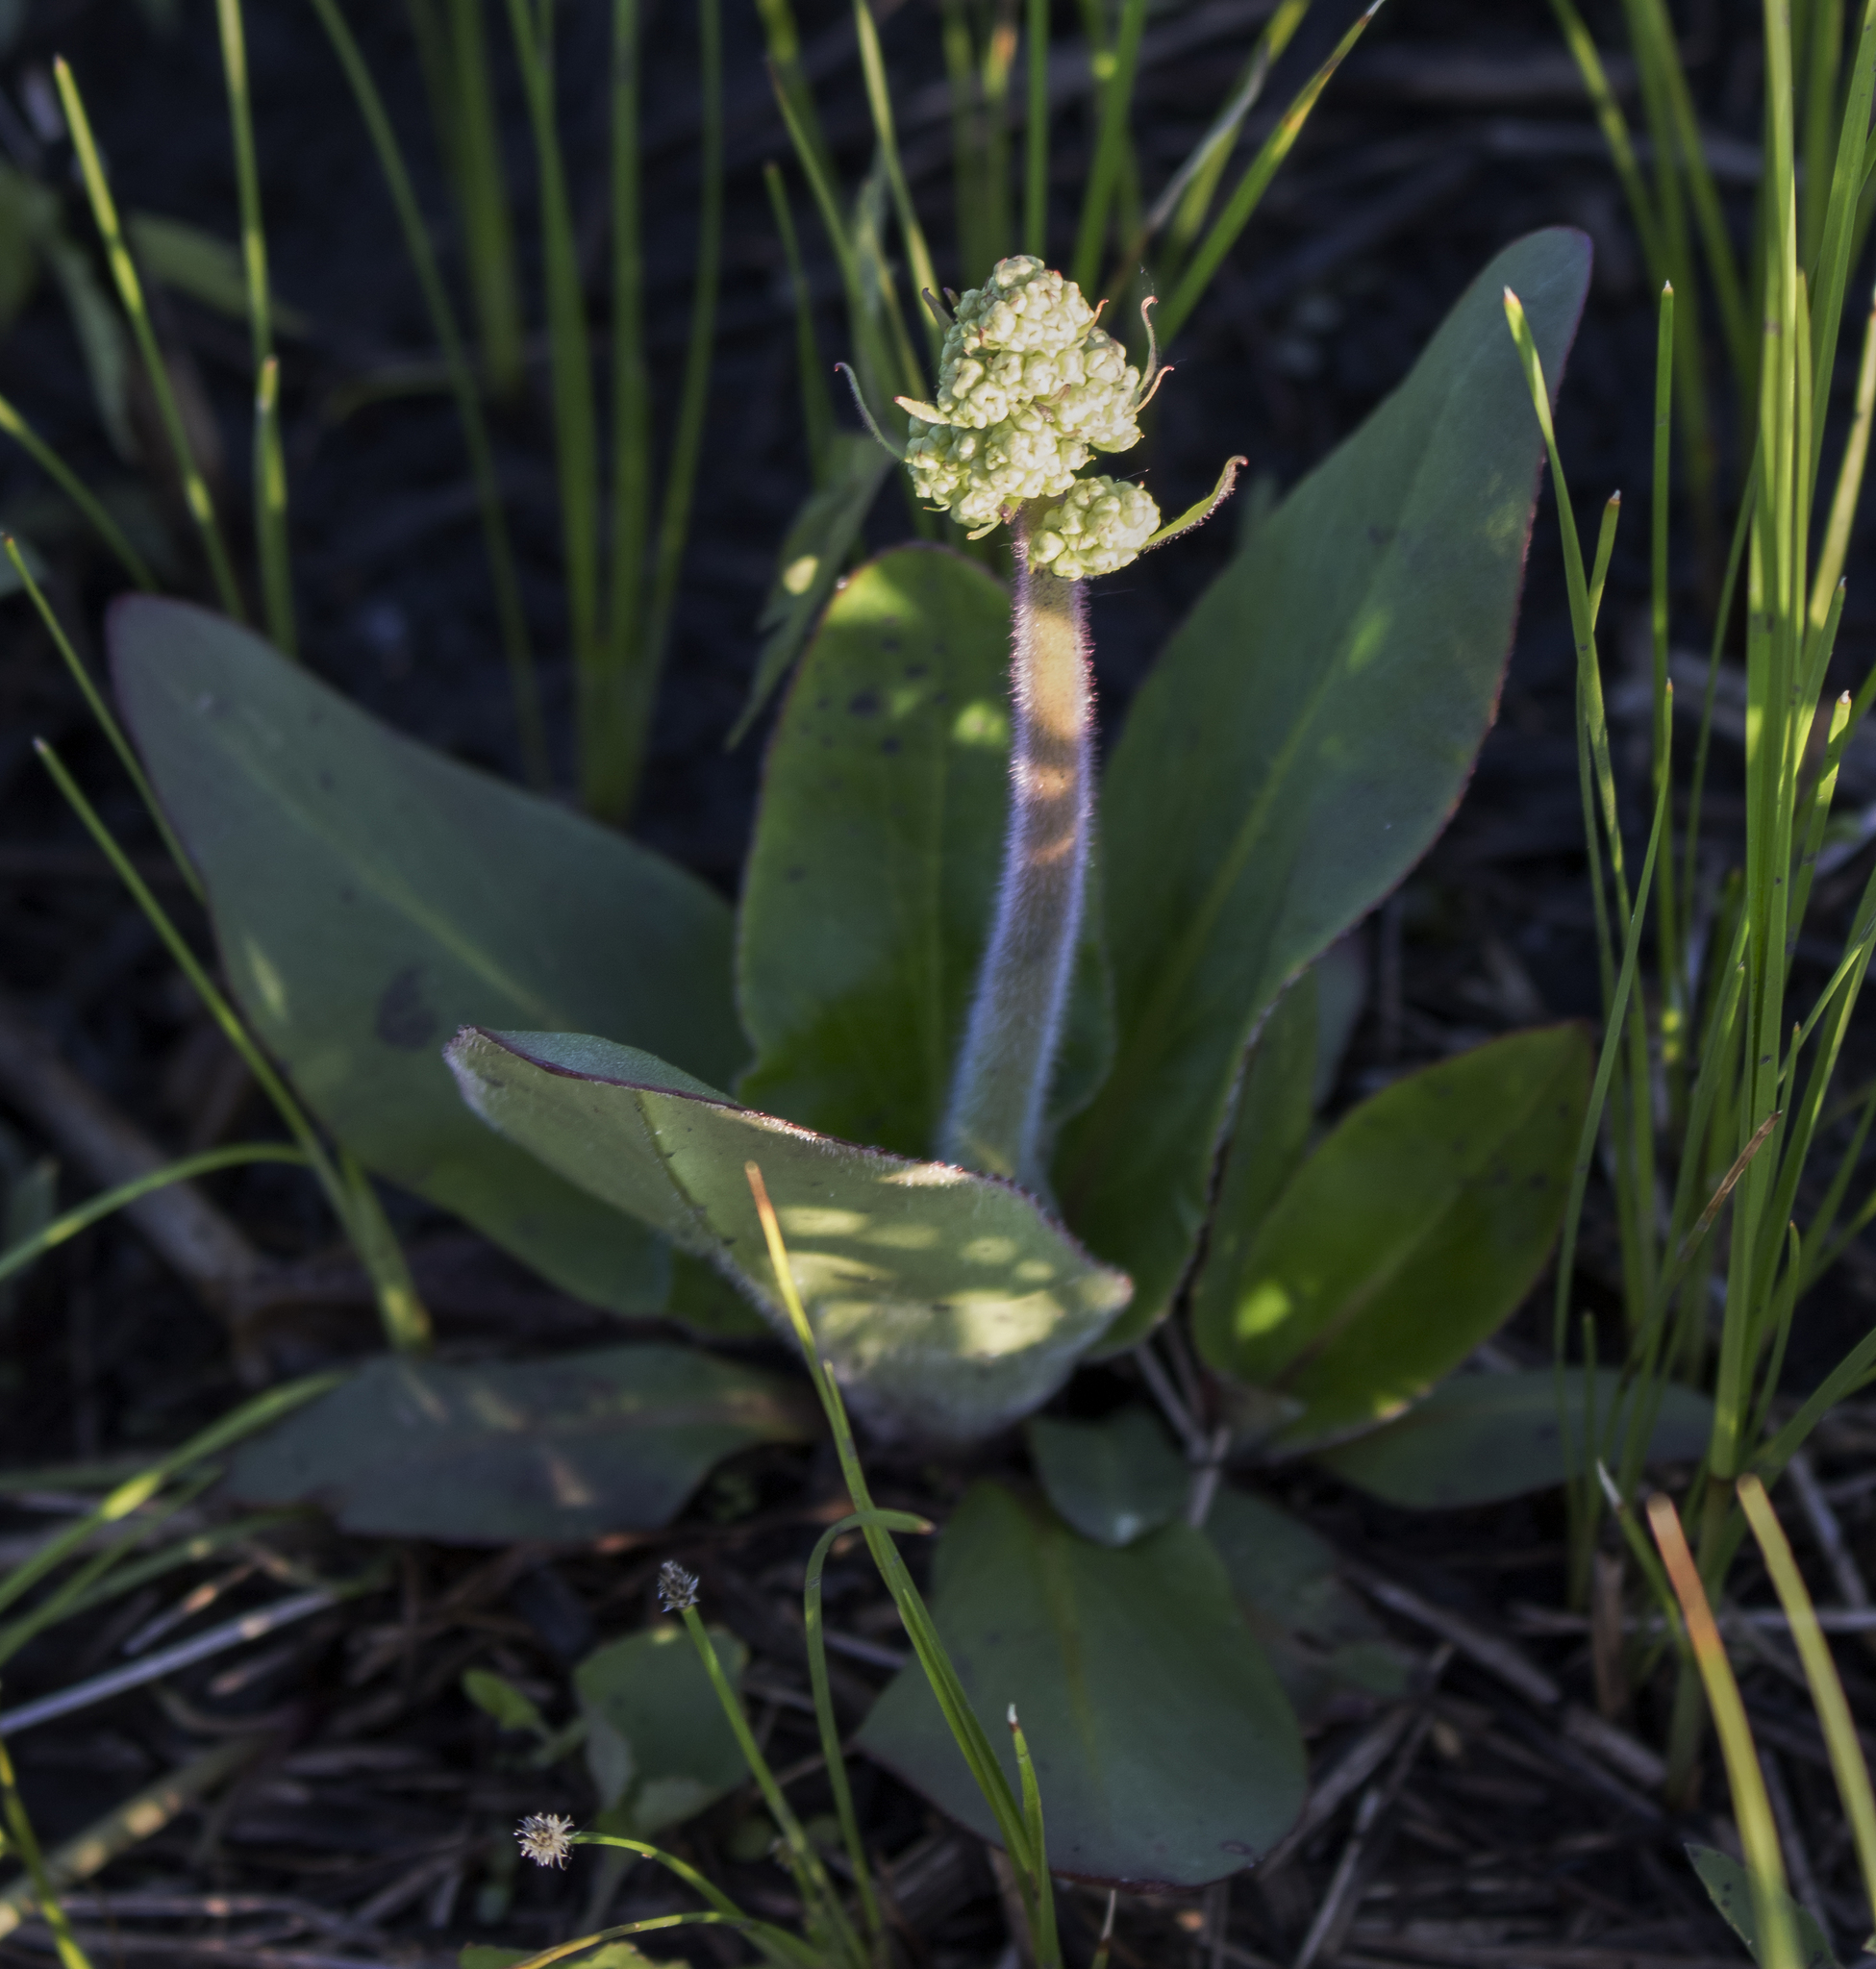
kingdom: Plantae
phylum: Tracheophyta
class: Magnoliopsida
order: Saxifragales
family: Saxifragaceae
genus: Micranthes
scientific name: Micranthes pensylvanica
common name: Marsh saxifrage
